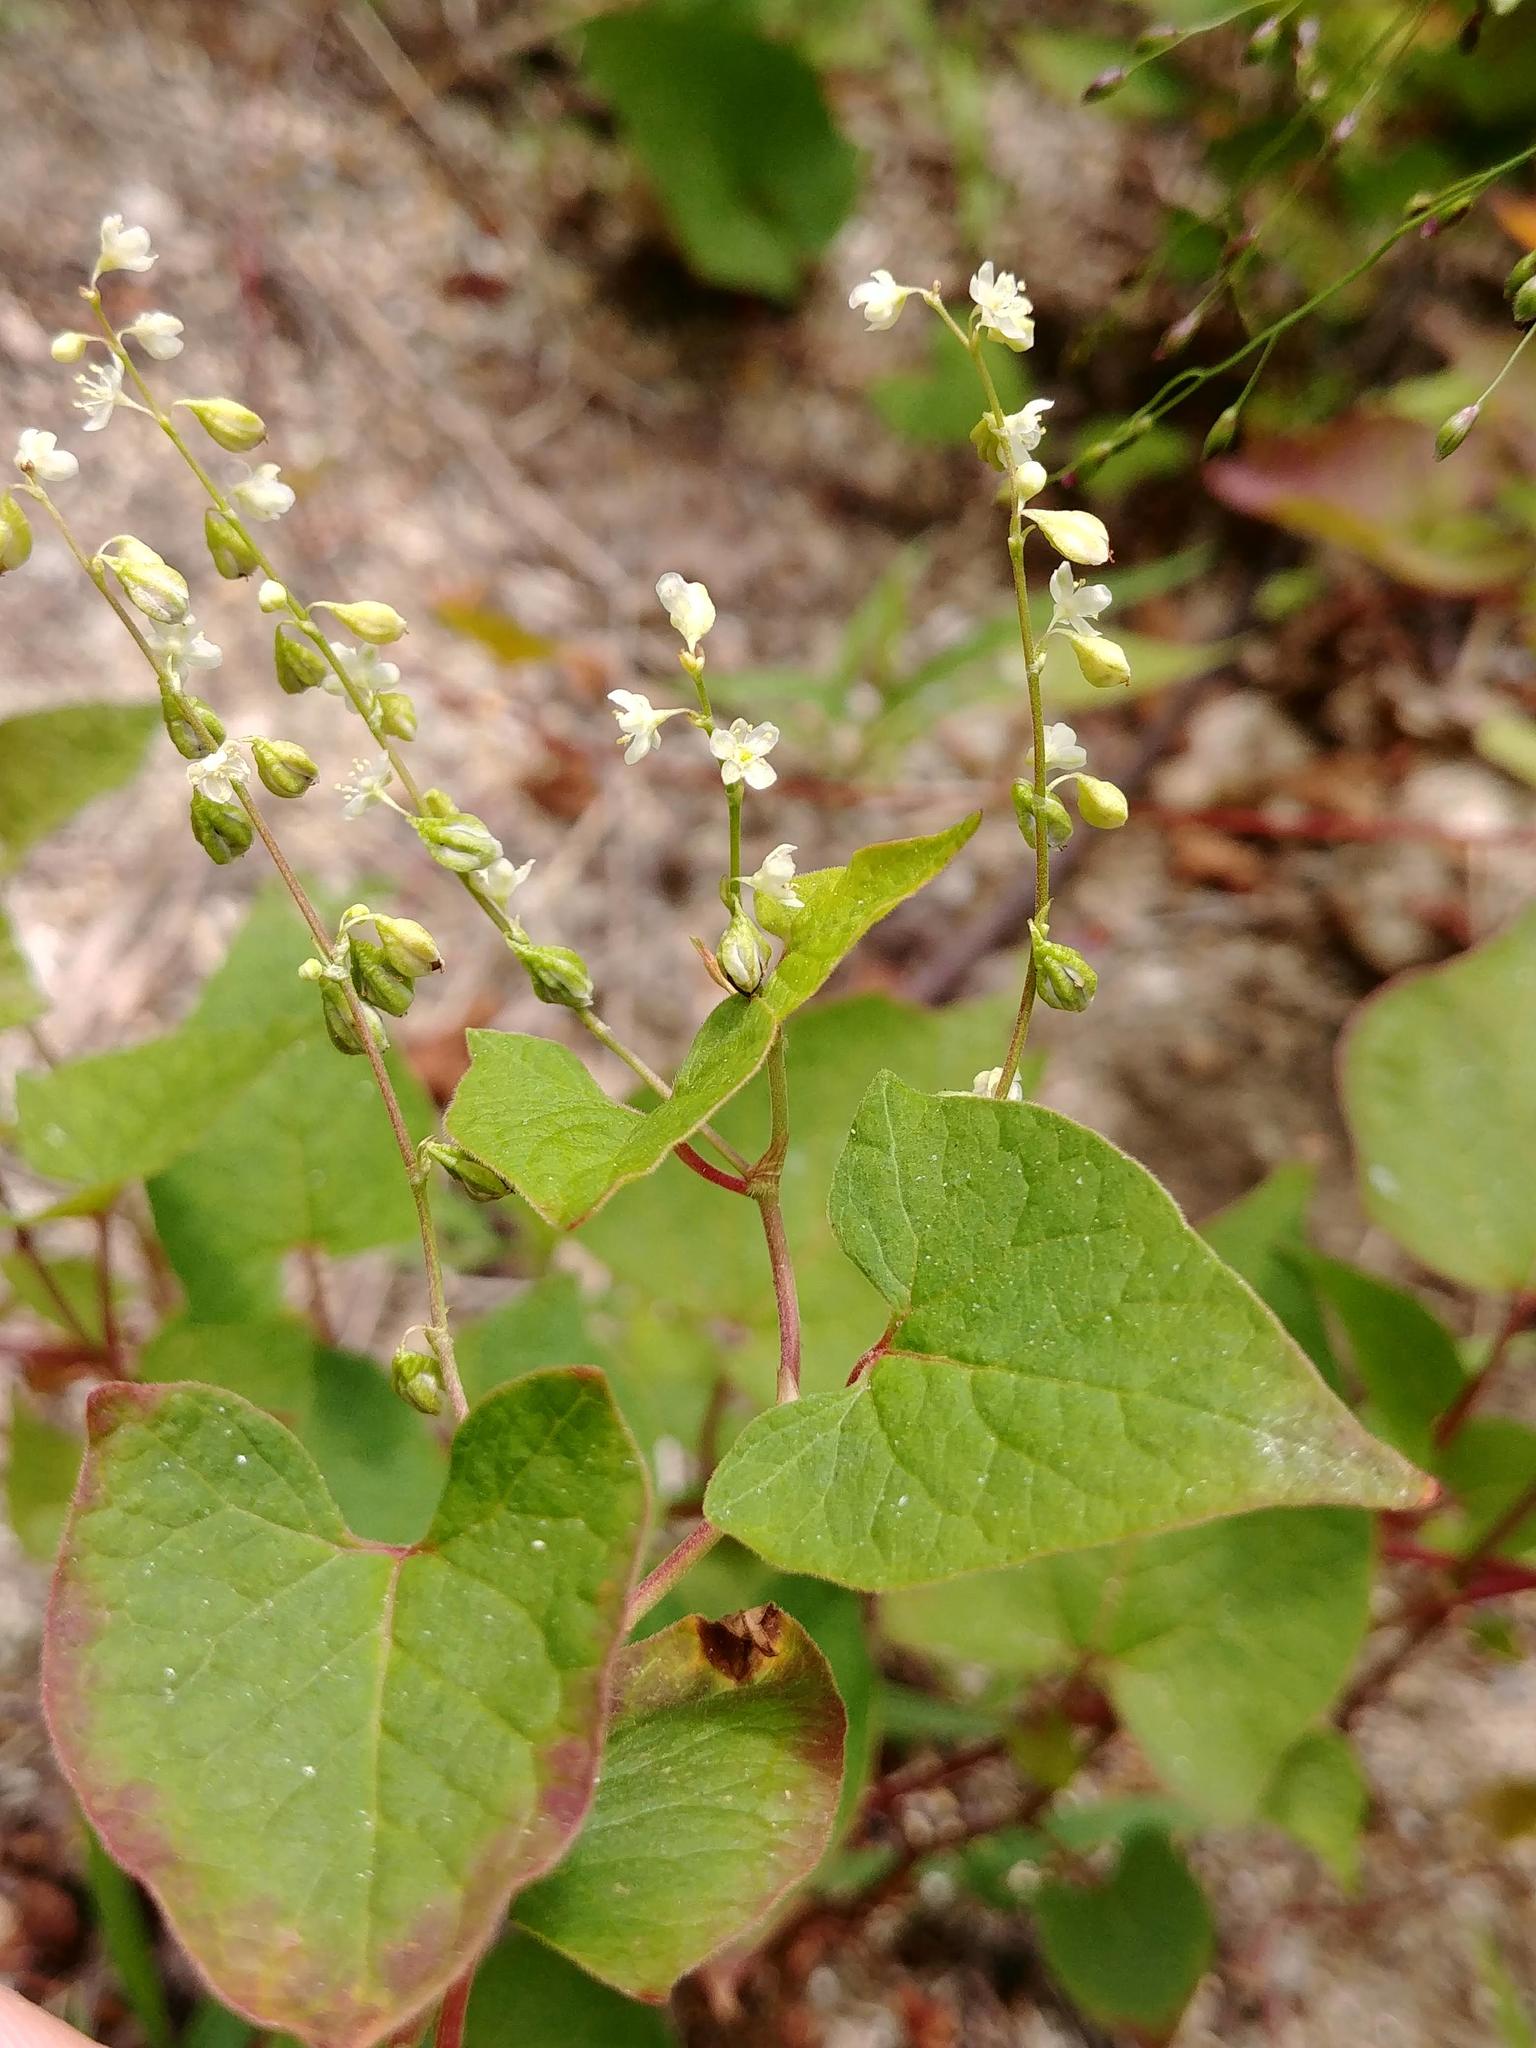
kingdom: Plantae
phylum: Tracheophyta
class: Magnoliopsida
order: Caryophyllales
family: Polygonaceae
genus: Parogonum
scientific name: Parogonum ciliinode
